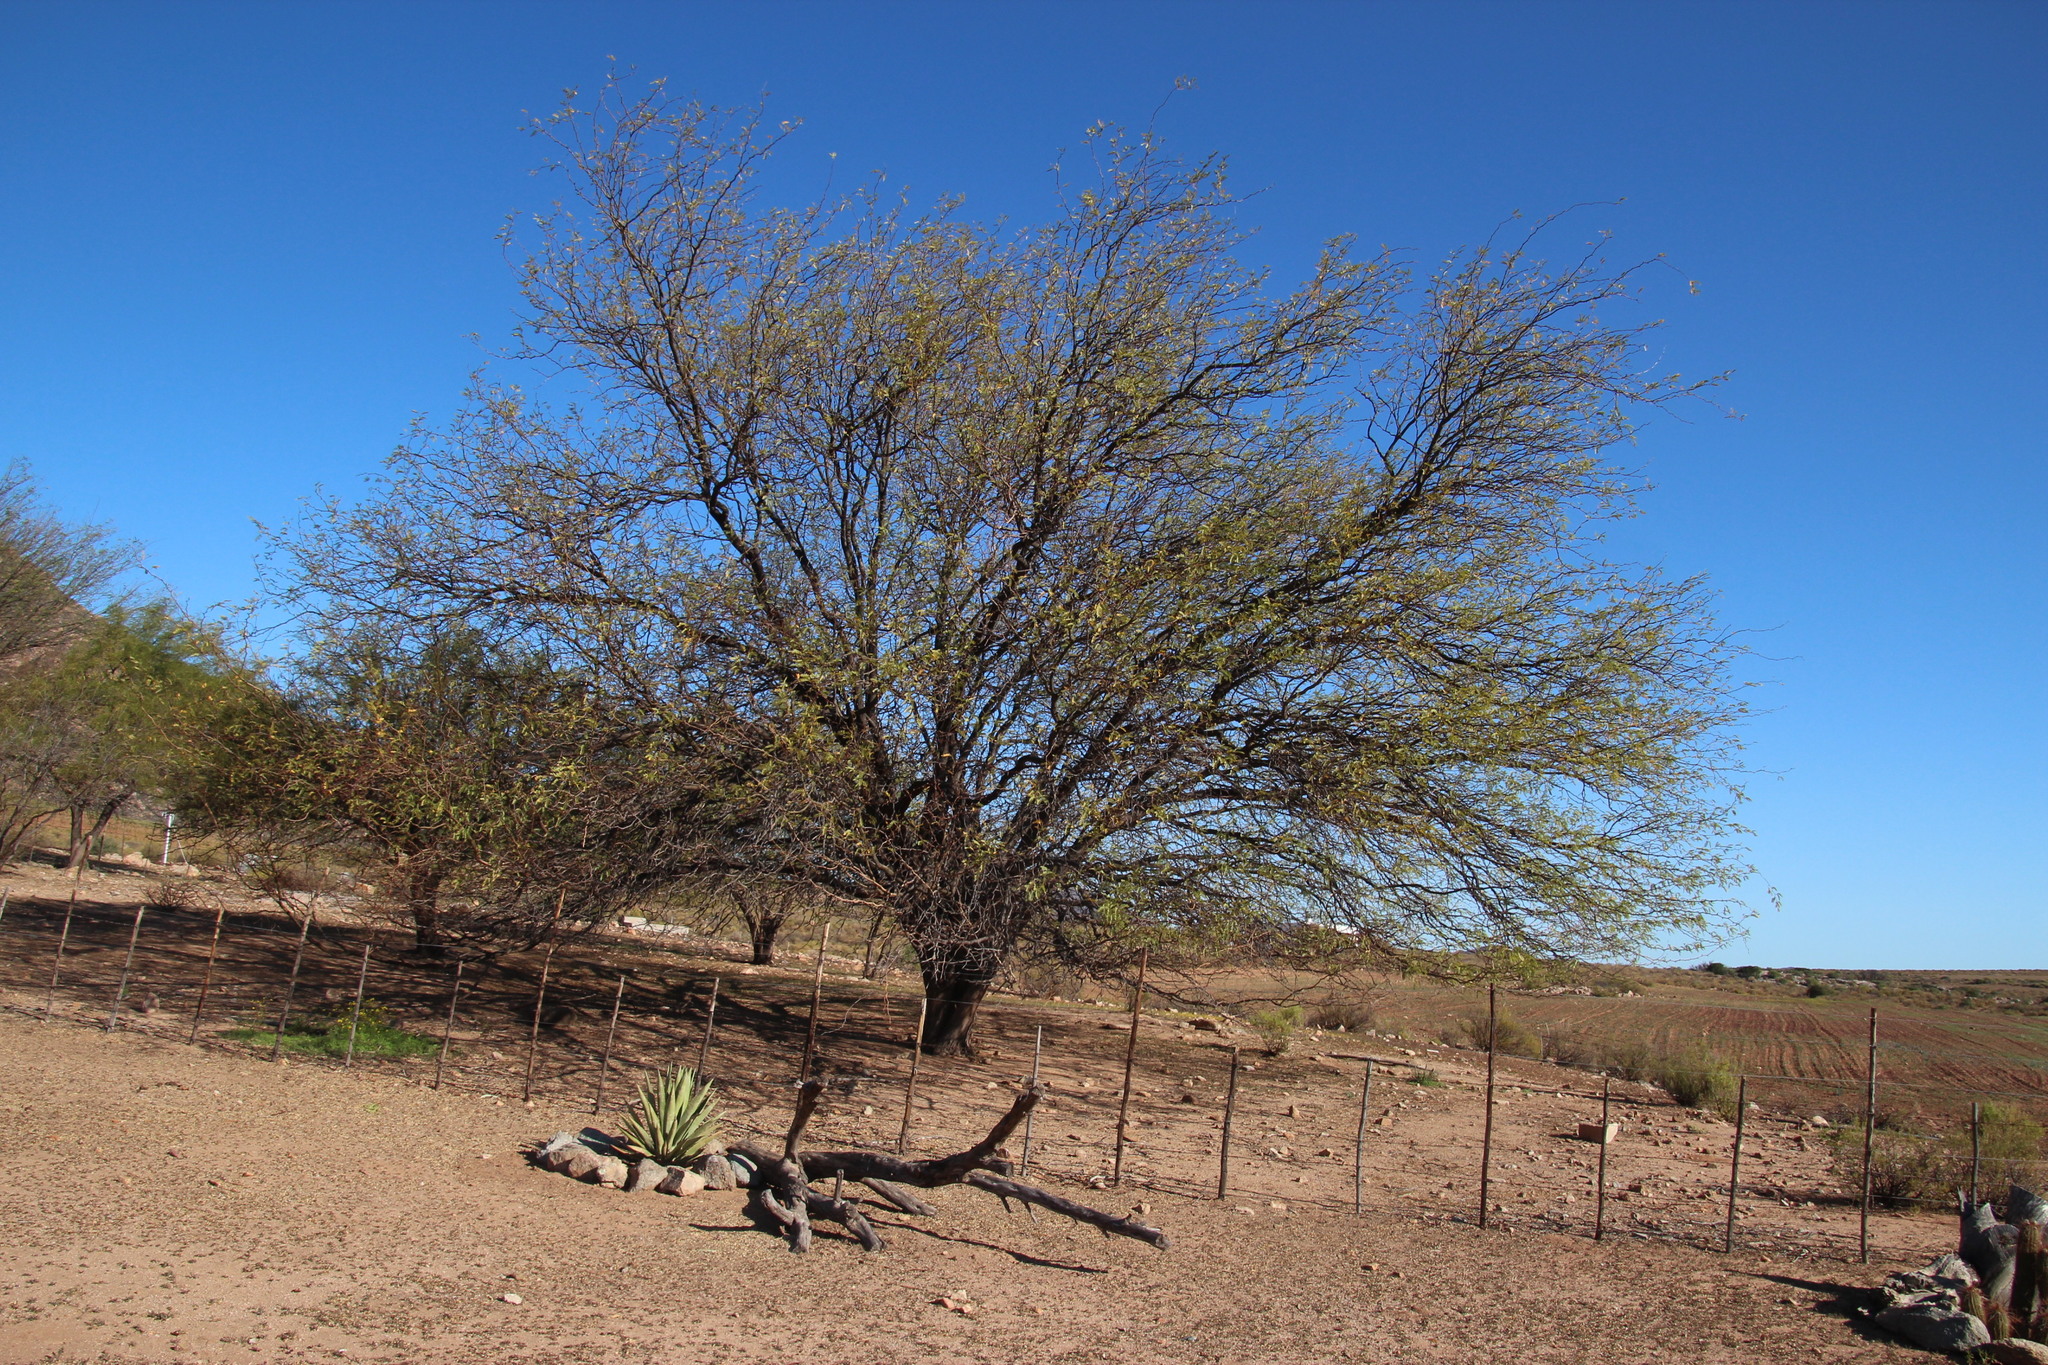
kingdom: Plantae
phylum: Tracheophyta
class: Magnoliopsida
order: Fabales
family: Fabaceae
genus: Prosopis
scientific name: Prosopis pubescens
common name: Screw-bean
